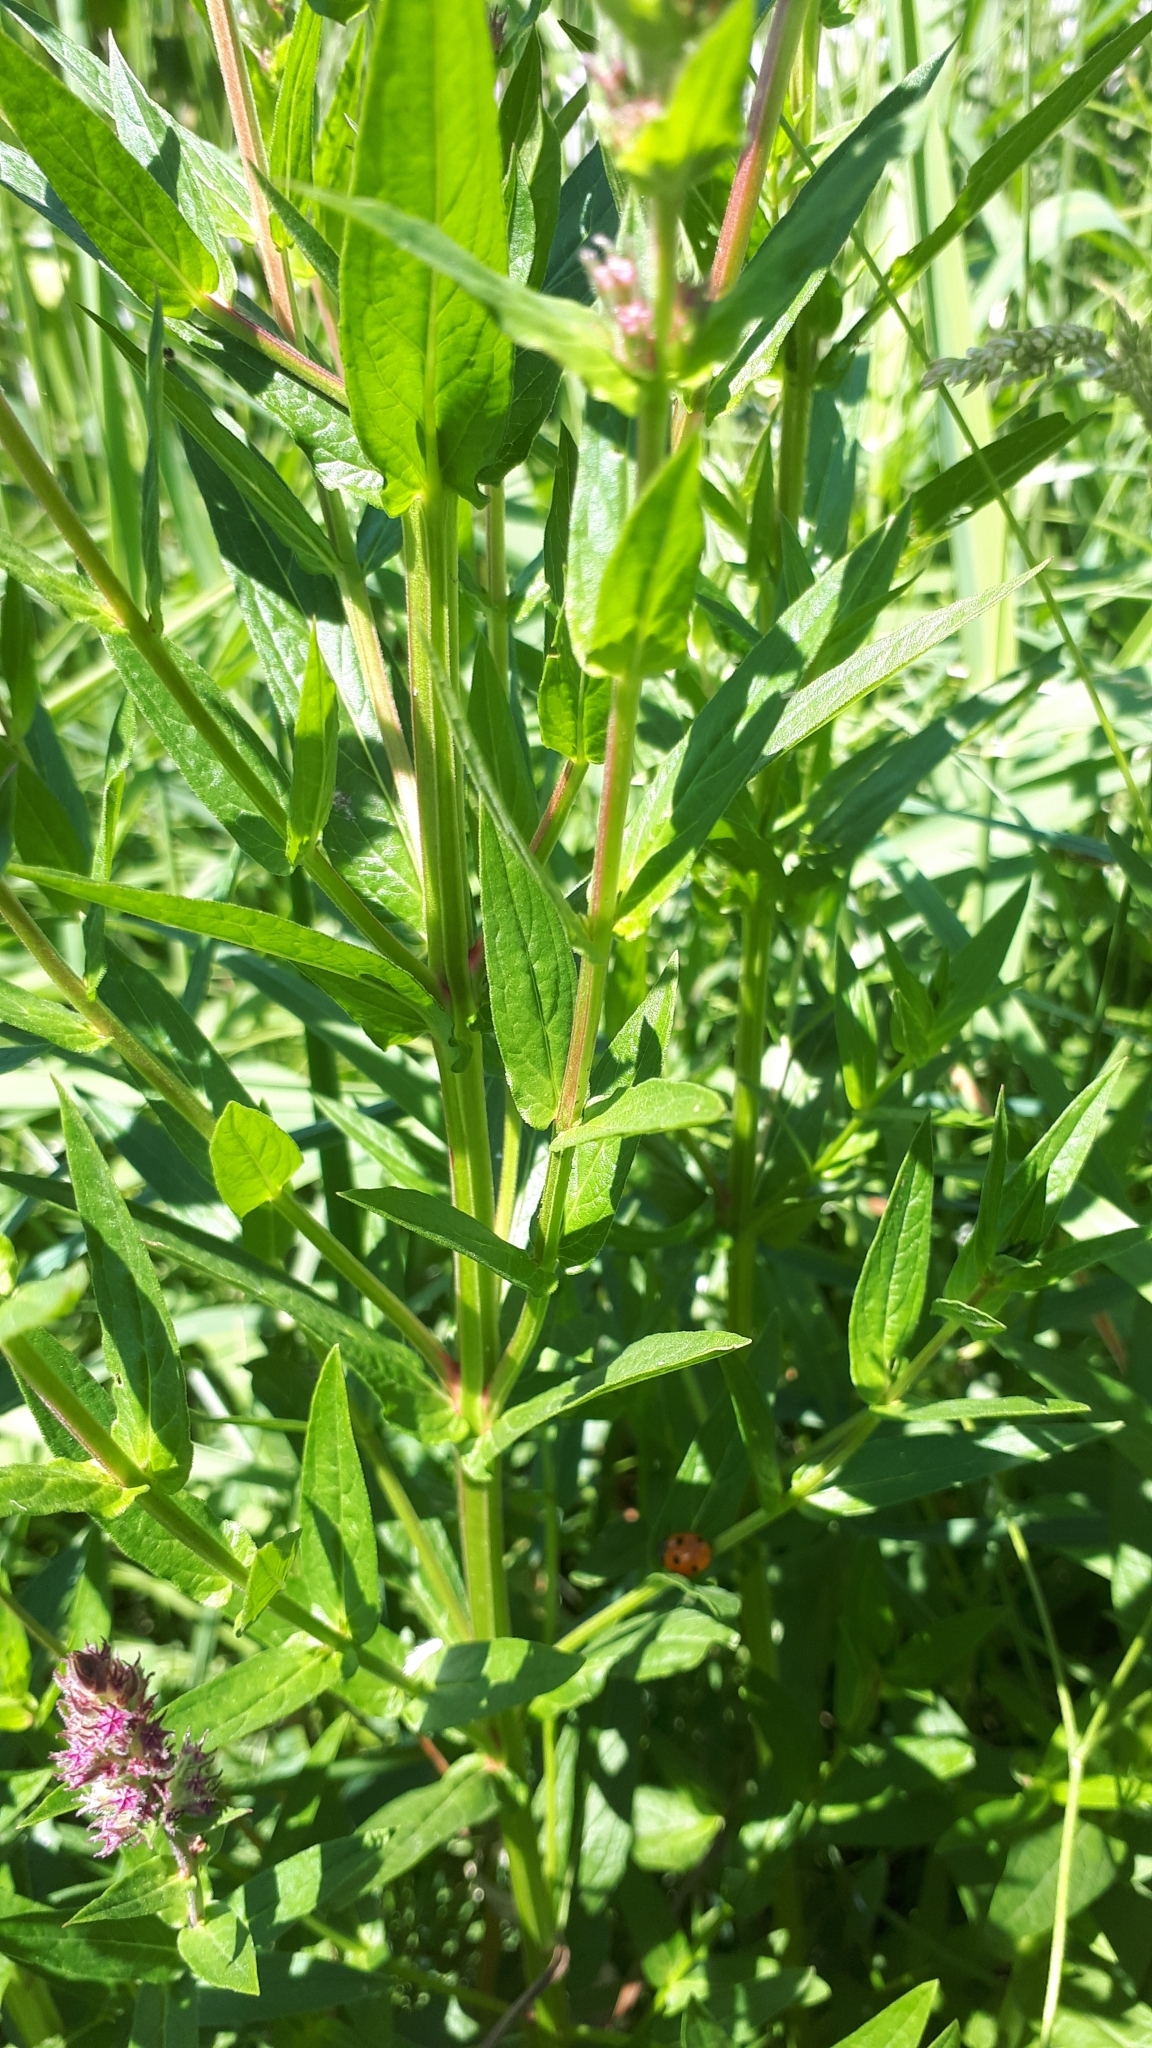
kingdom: Plantae
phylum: Tracheophyta
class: Magnoliopsida
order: Myrtales
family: Lythraceae
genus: Lythrum
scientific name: Lythrum salicaria
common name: Purple loosestrife
